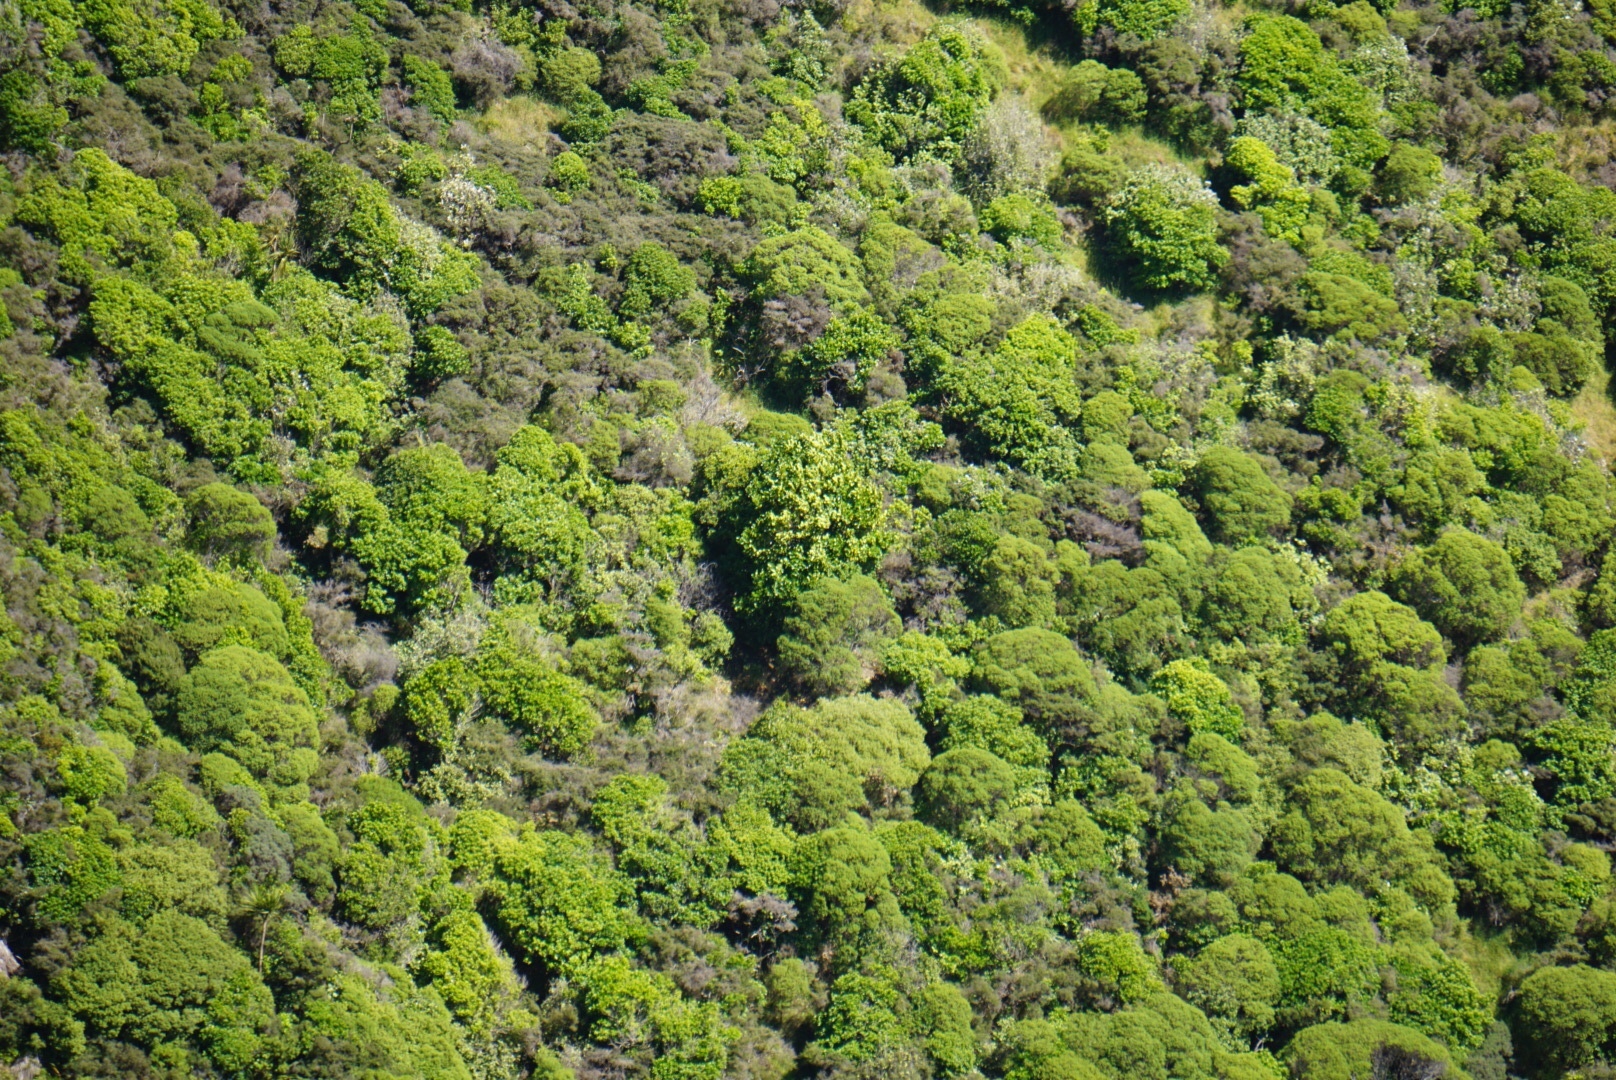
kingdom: Plantae
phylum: Tracheophyta
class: Magnoliopsida
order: Apiales
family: Griseliniaceae
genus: Griselinia
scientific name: Griselinia lucida
